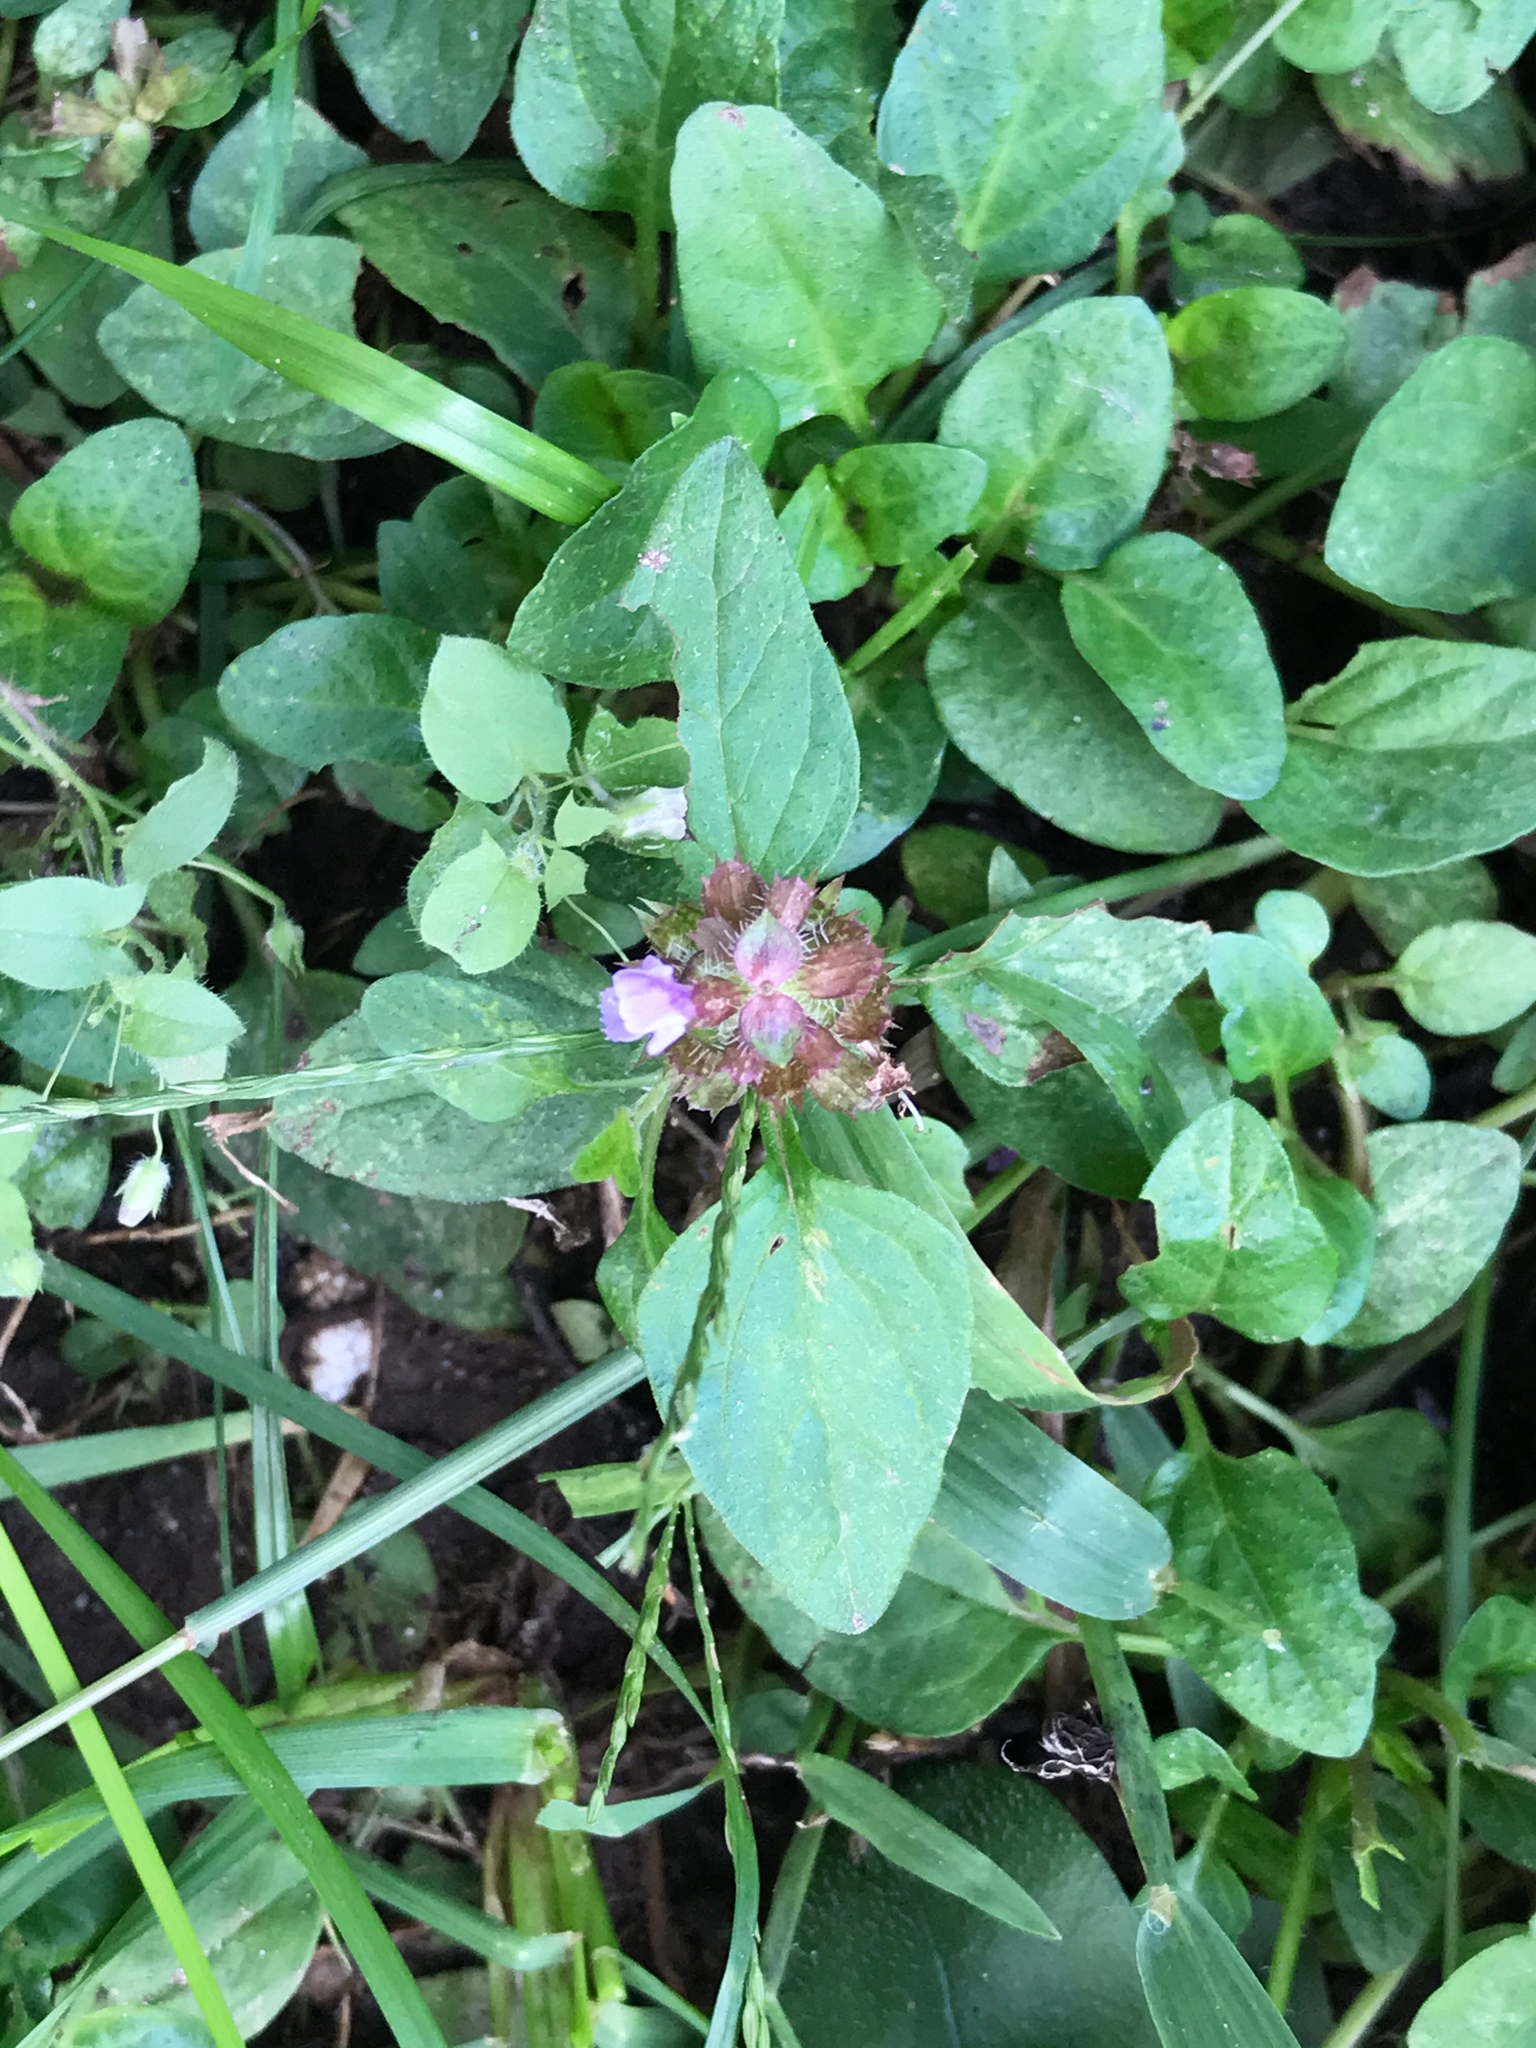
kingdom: Plantae
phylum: Tracheophyta
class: Magnoliopsida
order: Lamiales
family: Lamiaceae
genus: Prunella
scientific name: Prunella vulgaris
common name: Heal-all
